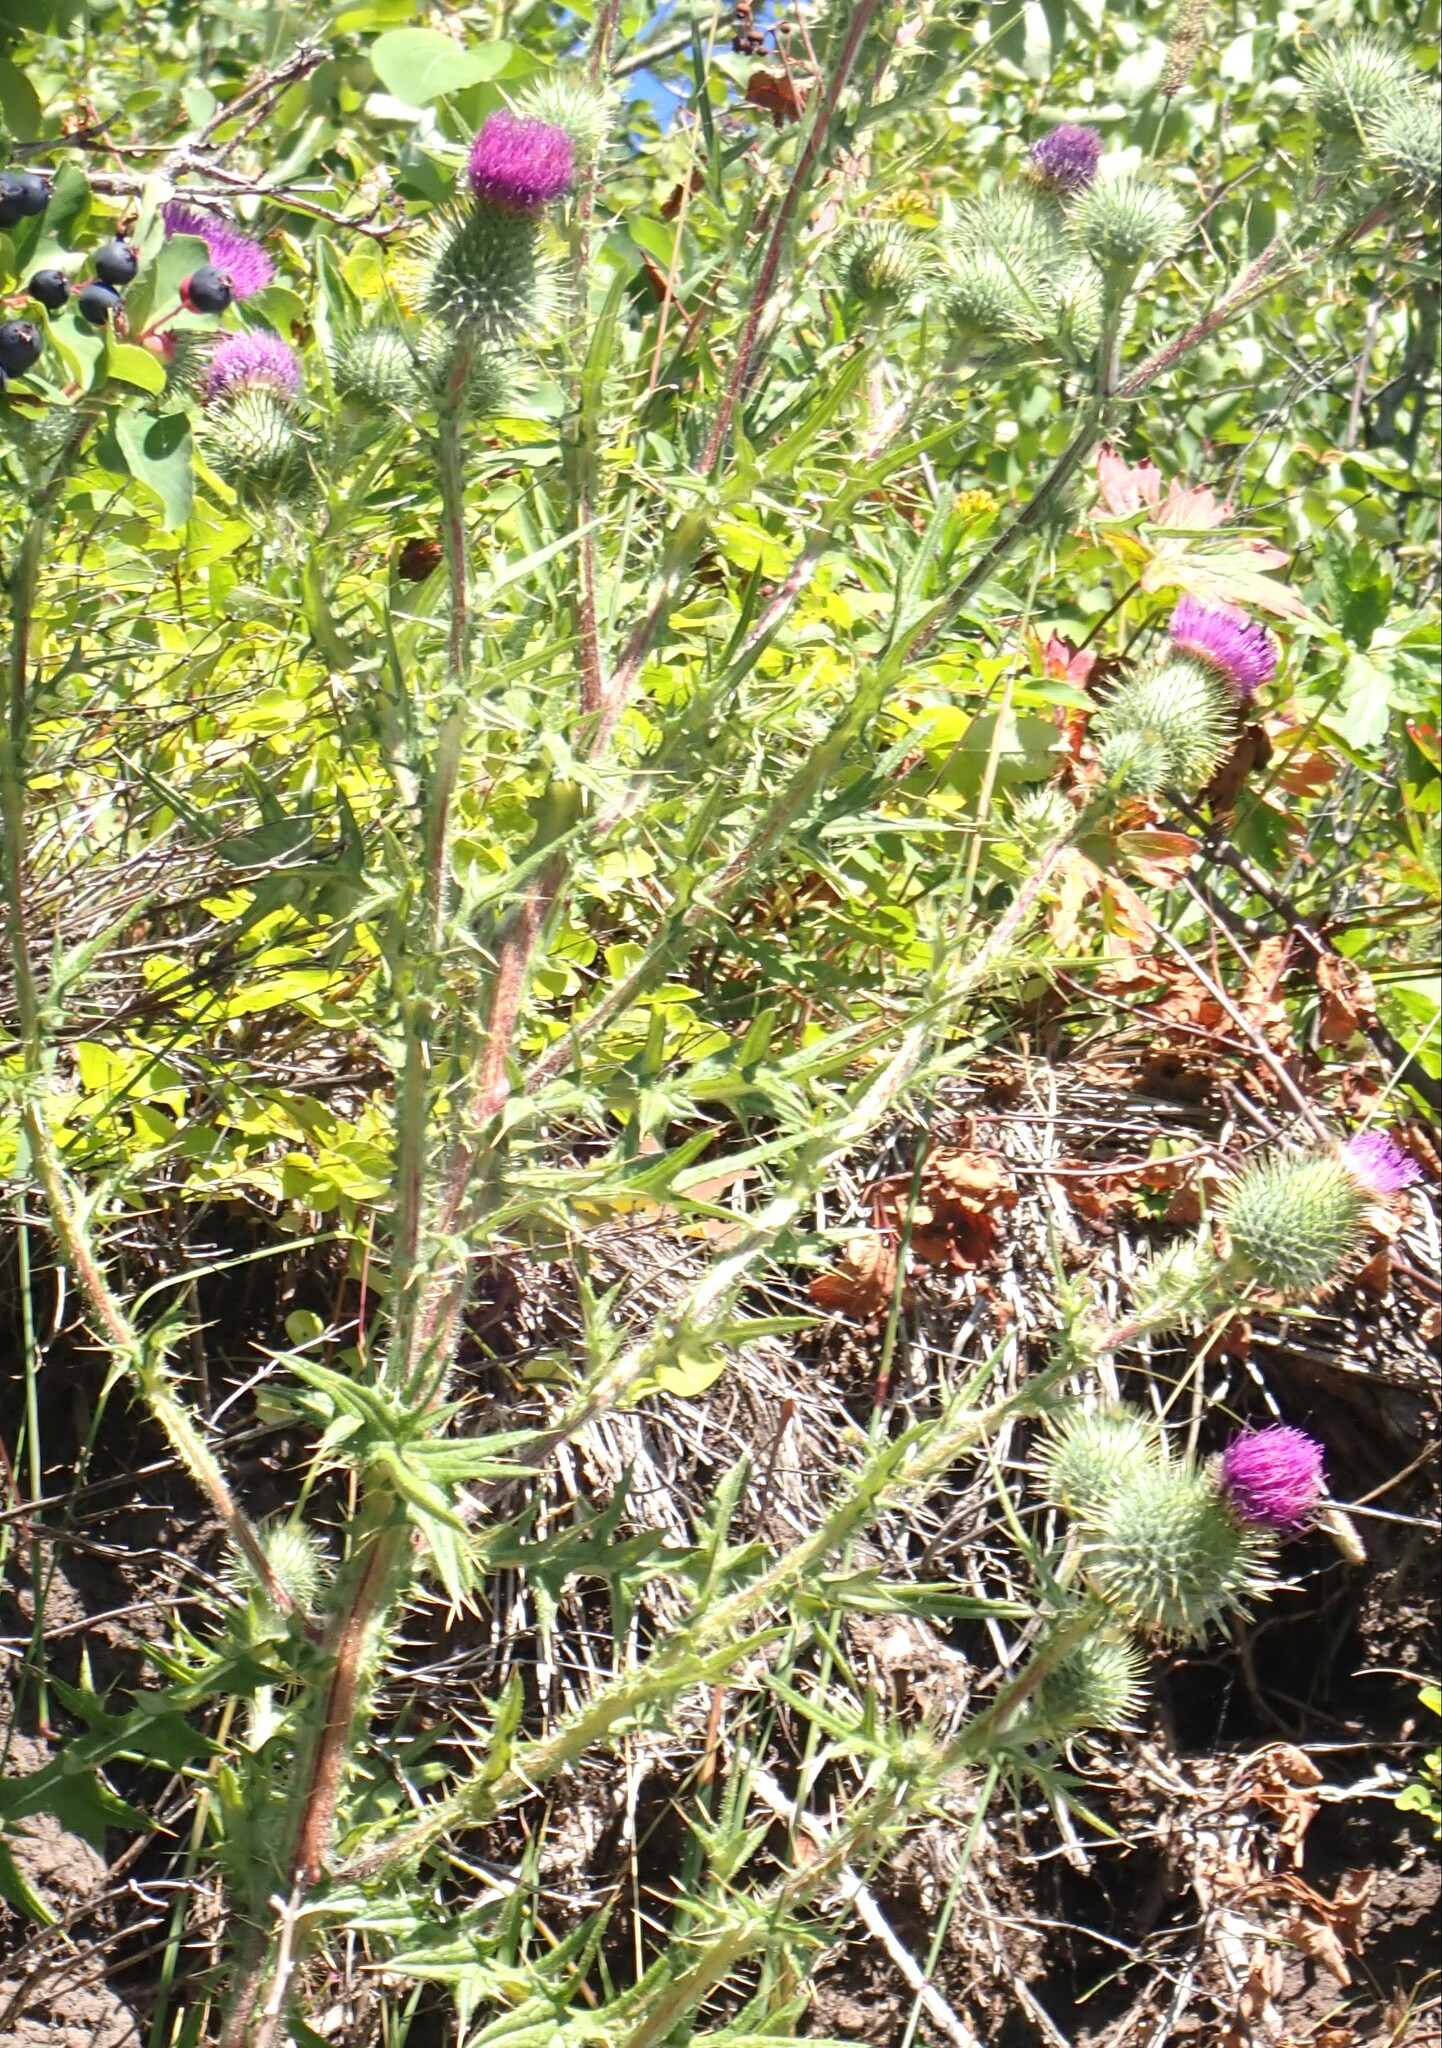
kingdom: Plantae
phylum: Tracheophyta
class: Magnoliopsida
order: Asterales
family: Asteraceae
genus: Cirsium
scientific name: Cirsium vulgare
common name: Bull thistle
